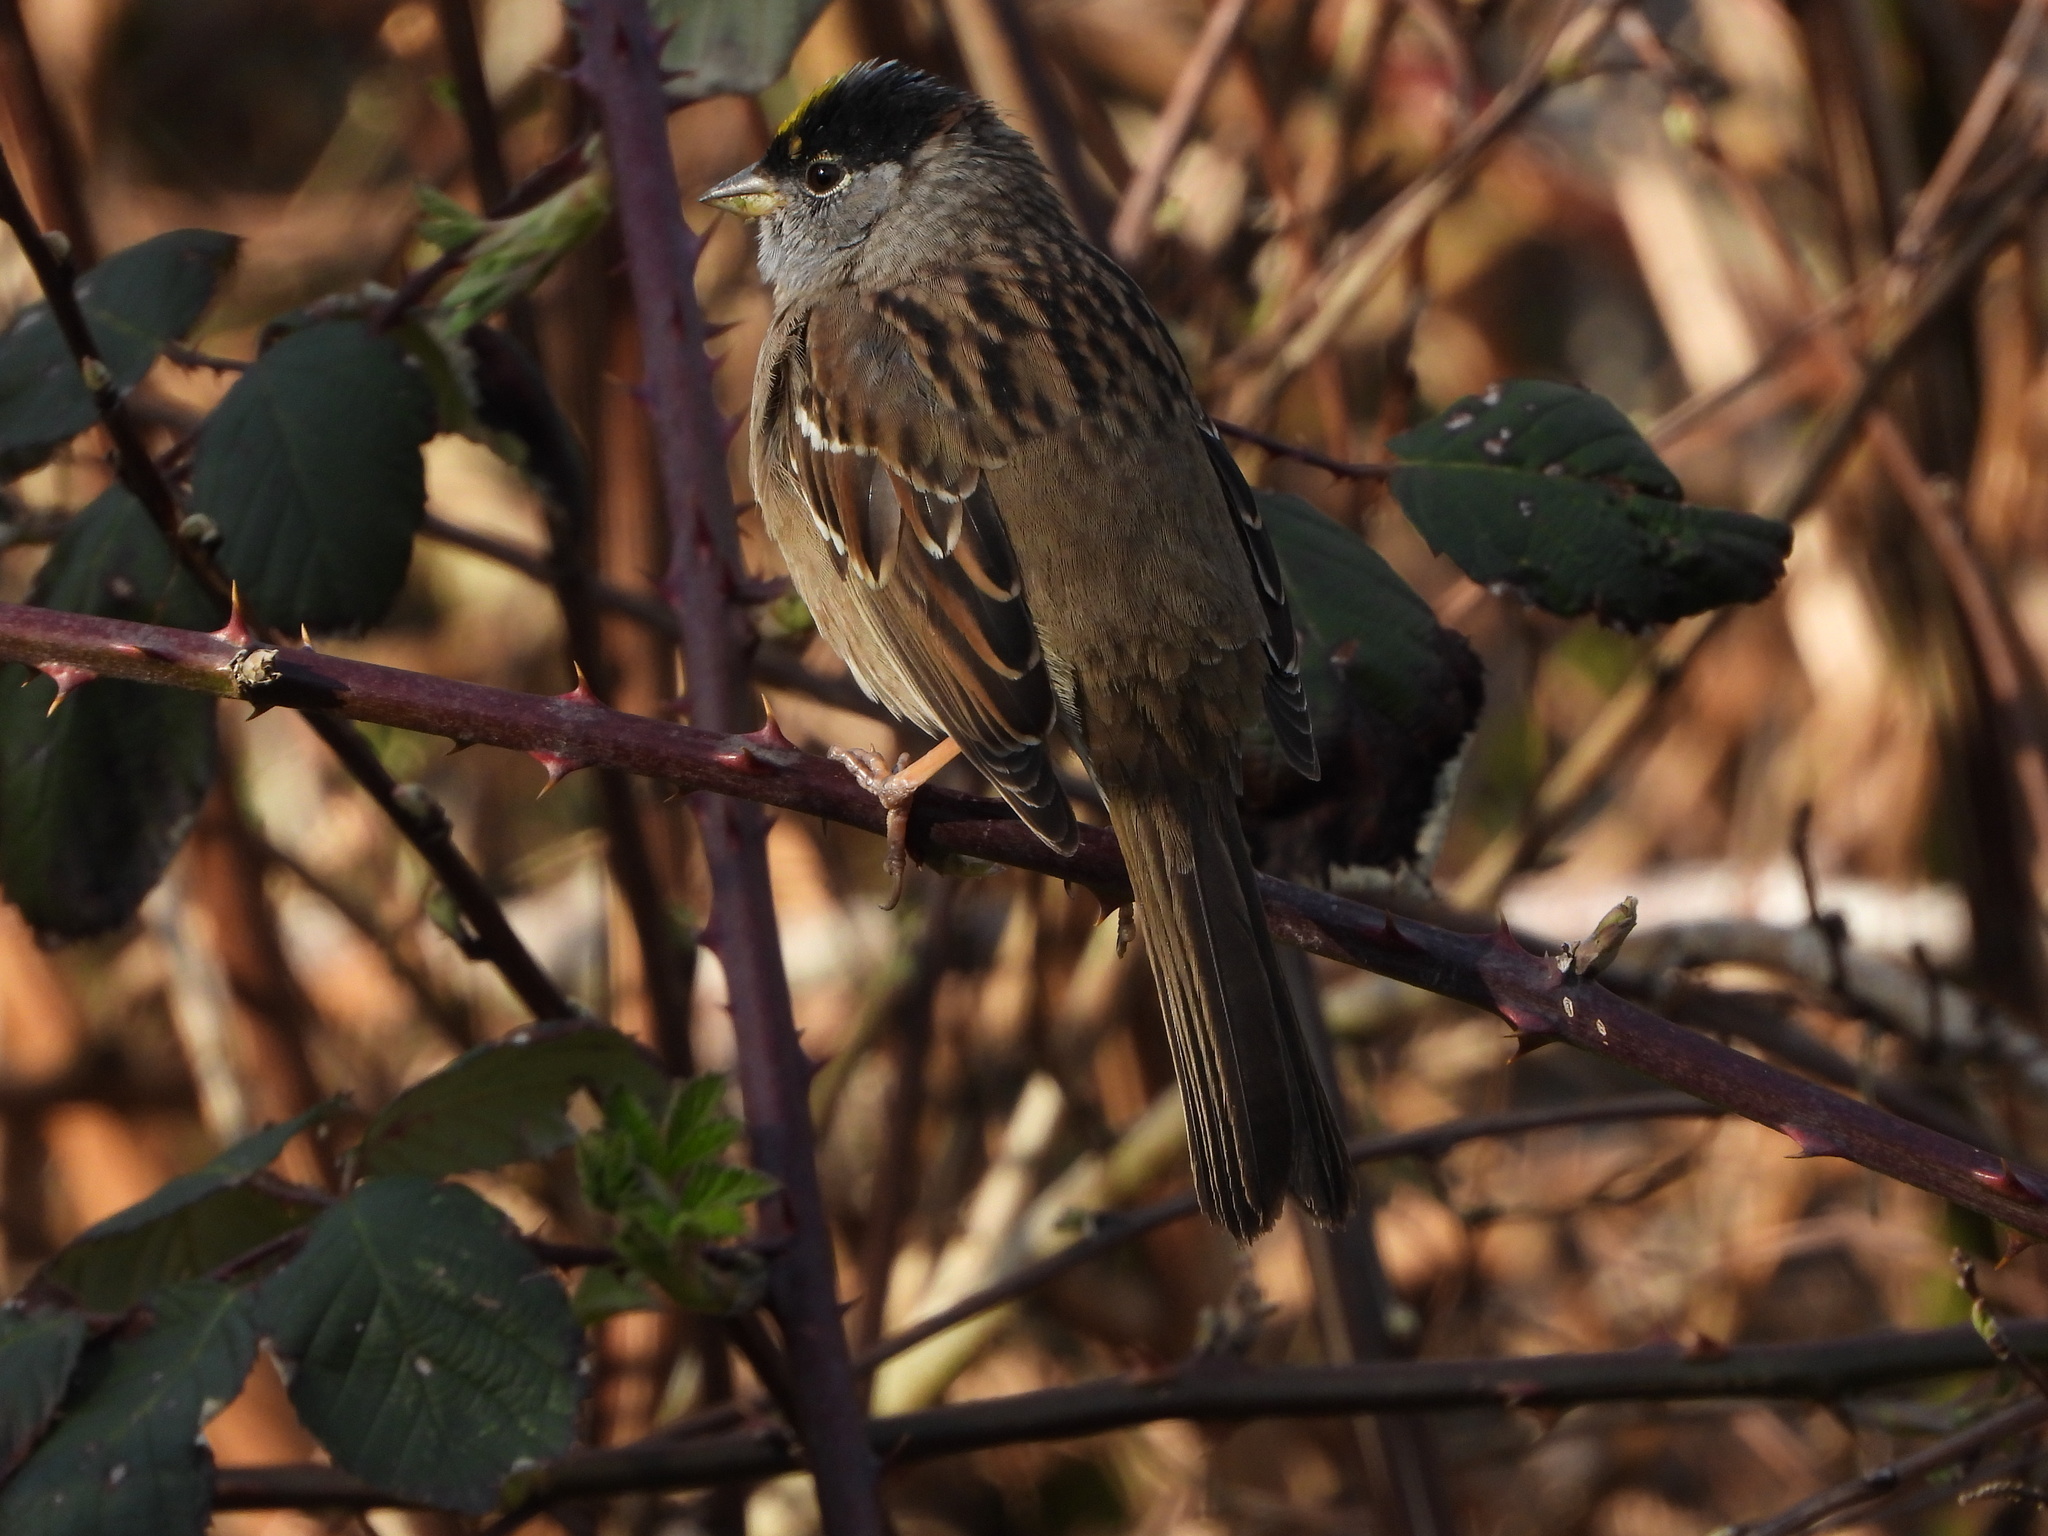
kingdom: Animalia
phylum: Chordata
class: Aves
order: Passeriformes
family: Passerellidae
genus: Zonotrichia
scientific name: Zonotrichia atricapilla
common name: Golden-crowned sparrow
